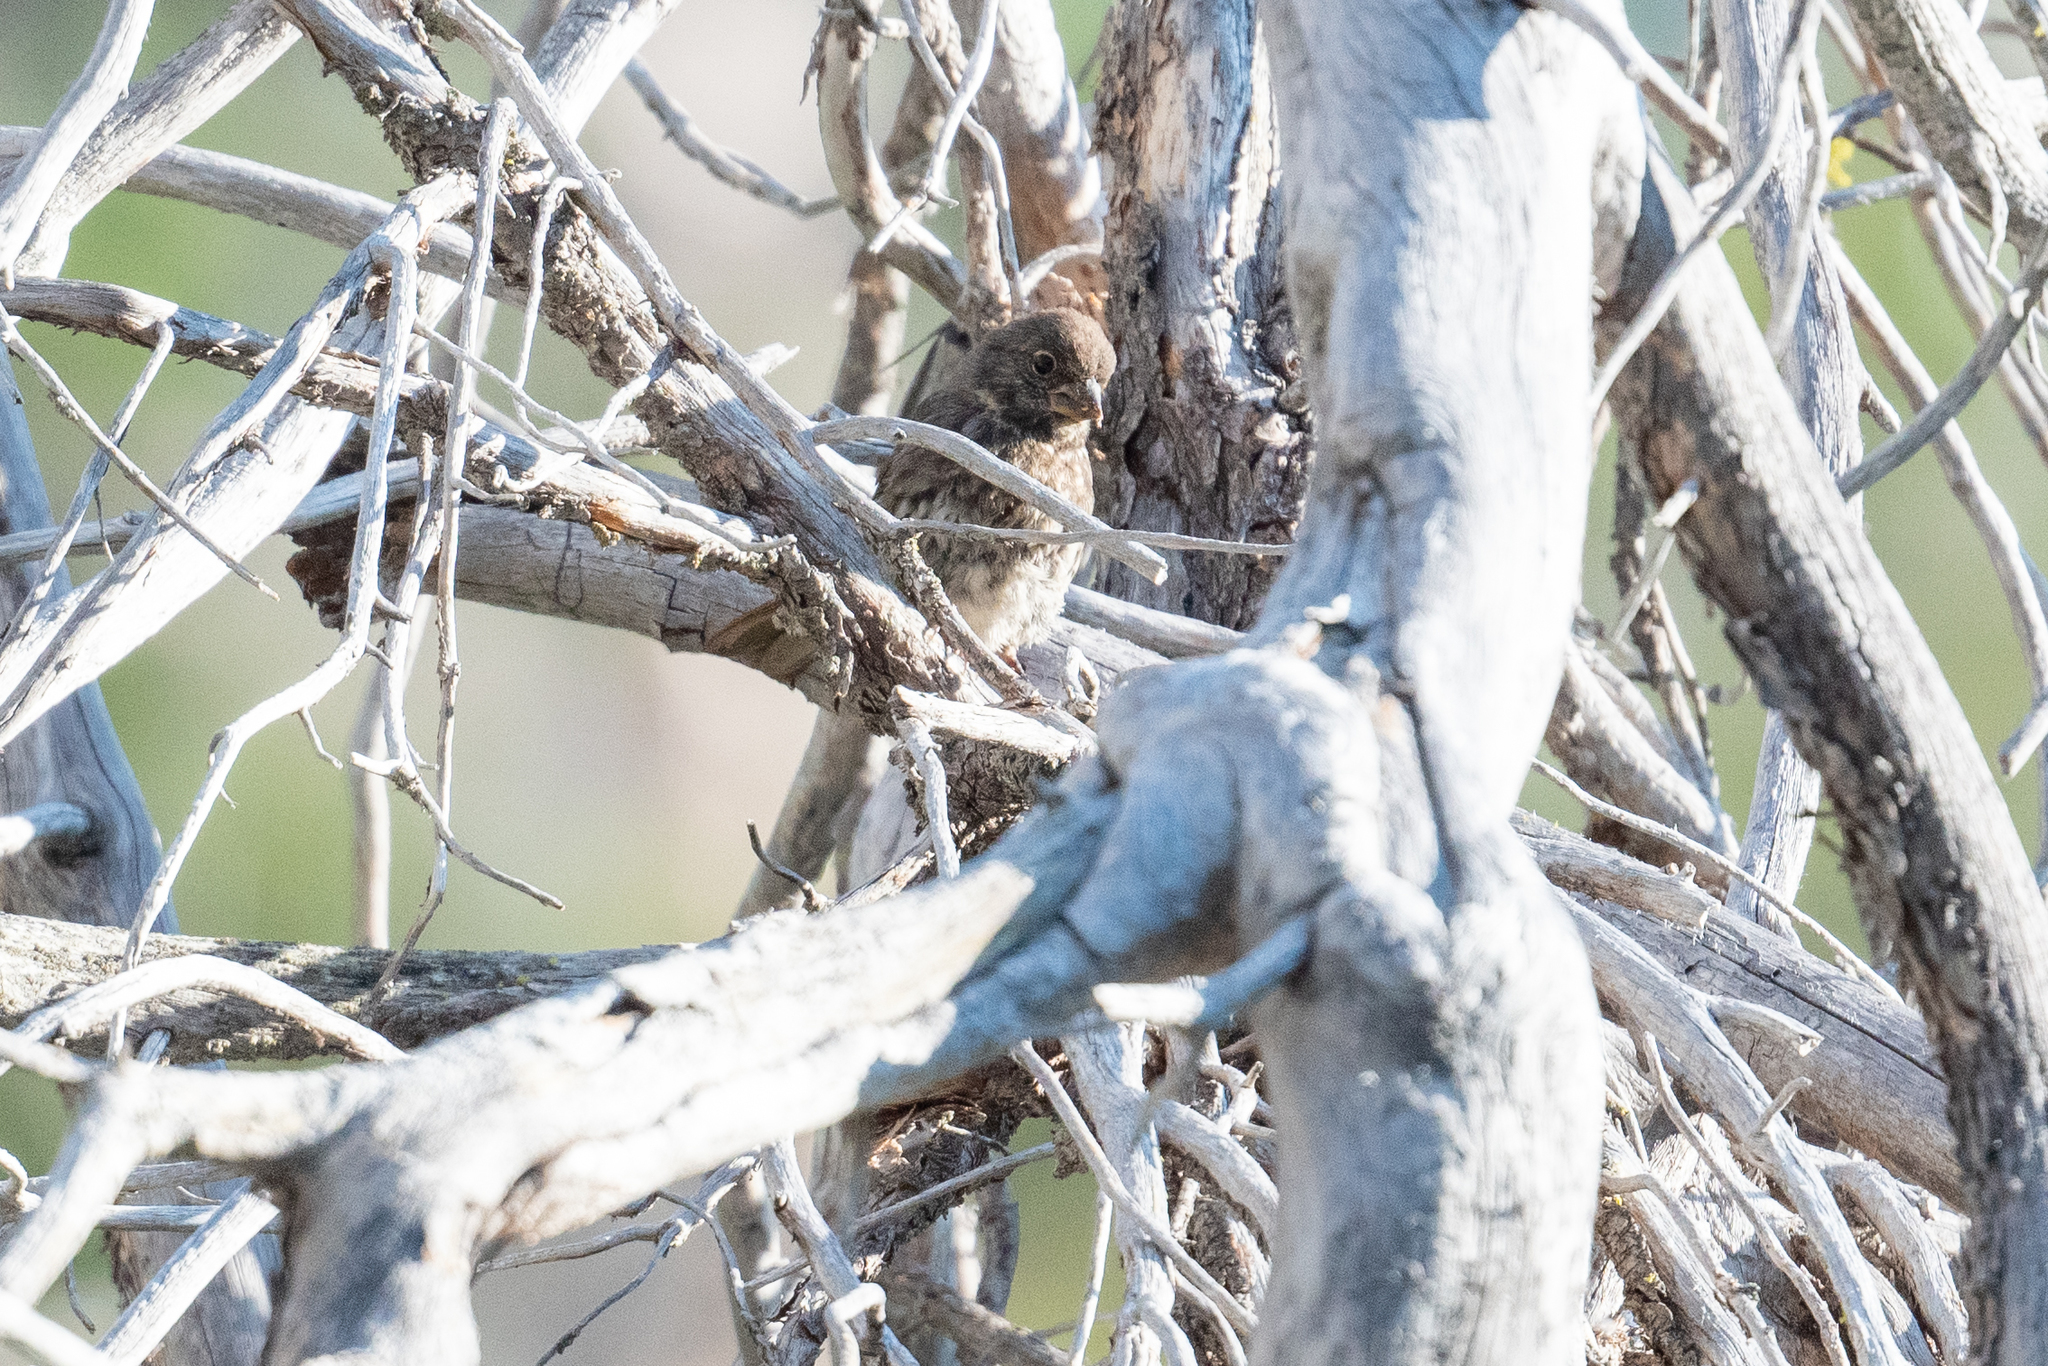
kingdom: Animalia
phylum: Chordata
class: Aves
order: Passeriformes
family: Passerellidae
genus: Passerella
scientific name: Passerella iliaca
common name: Fox sparrow
